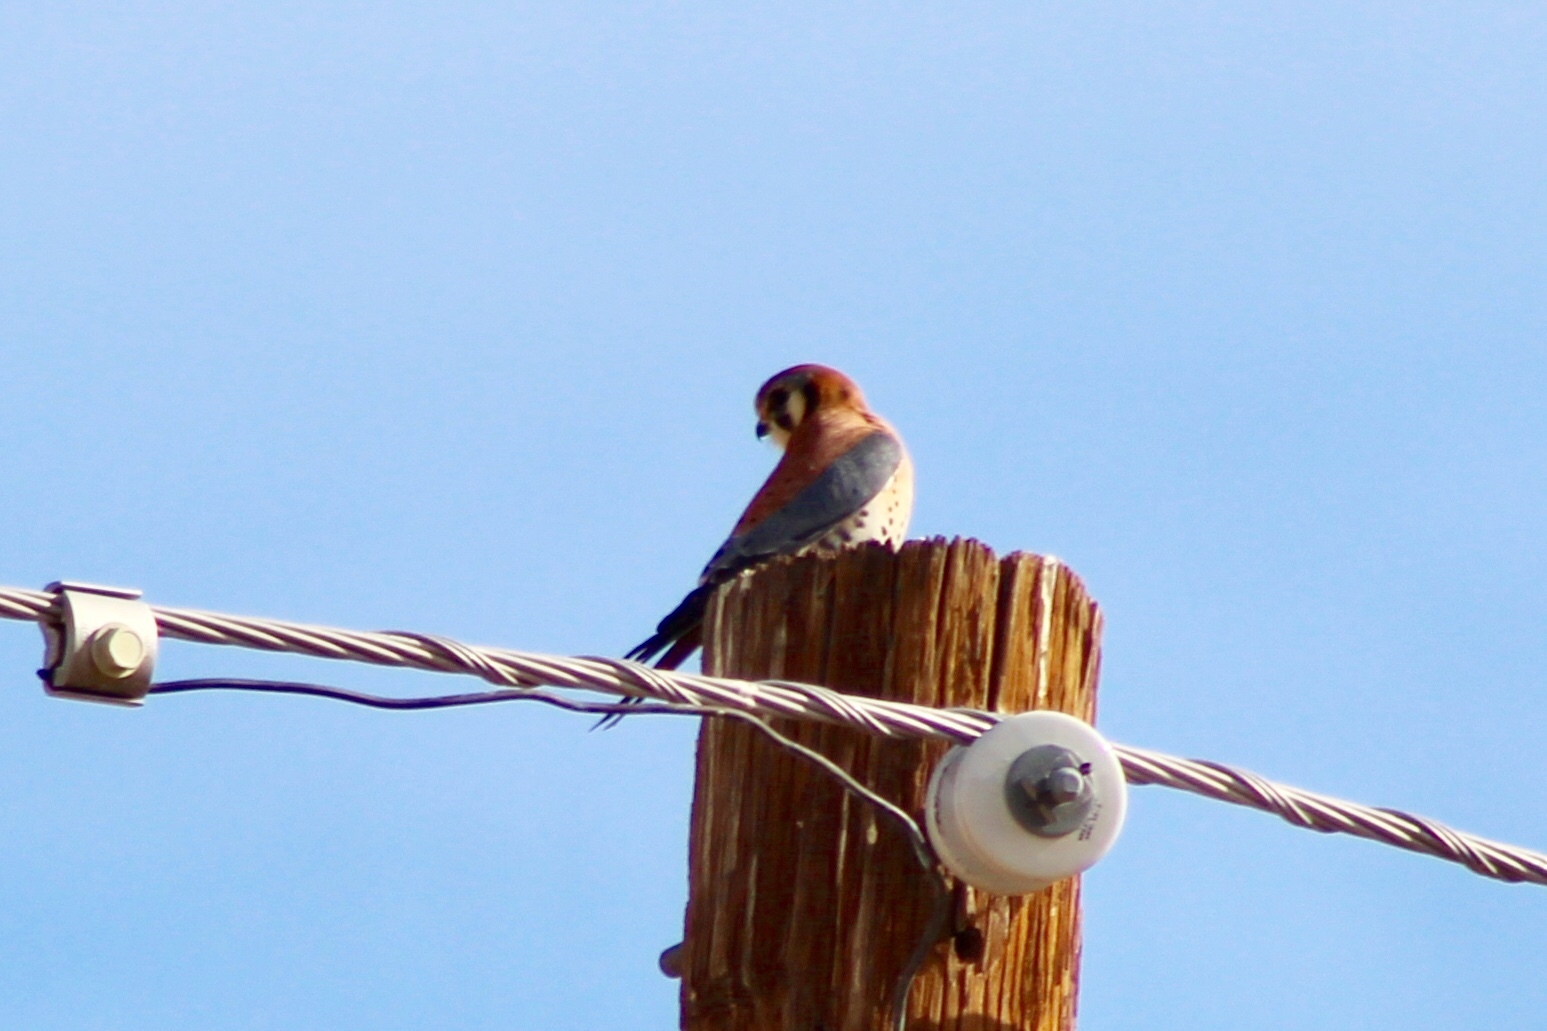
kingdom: Animalia
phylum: Chordata
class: Aves
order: Falconiformes
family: Falconidae
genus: Falco
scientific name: Falco sparverius
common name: American kestrel
